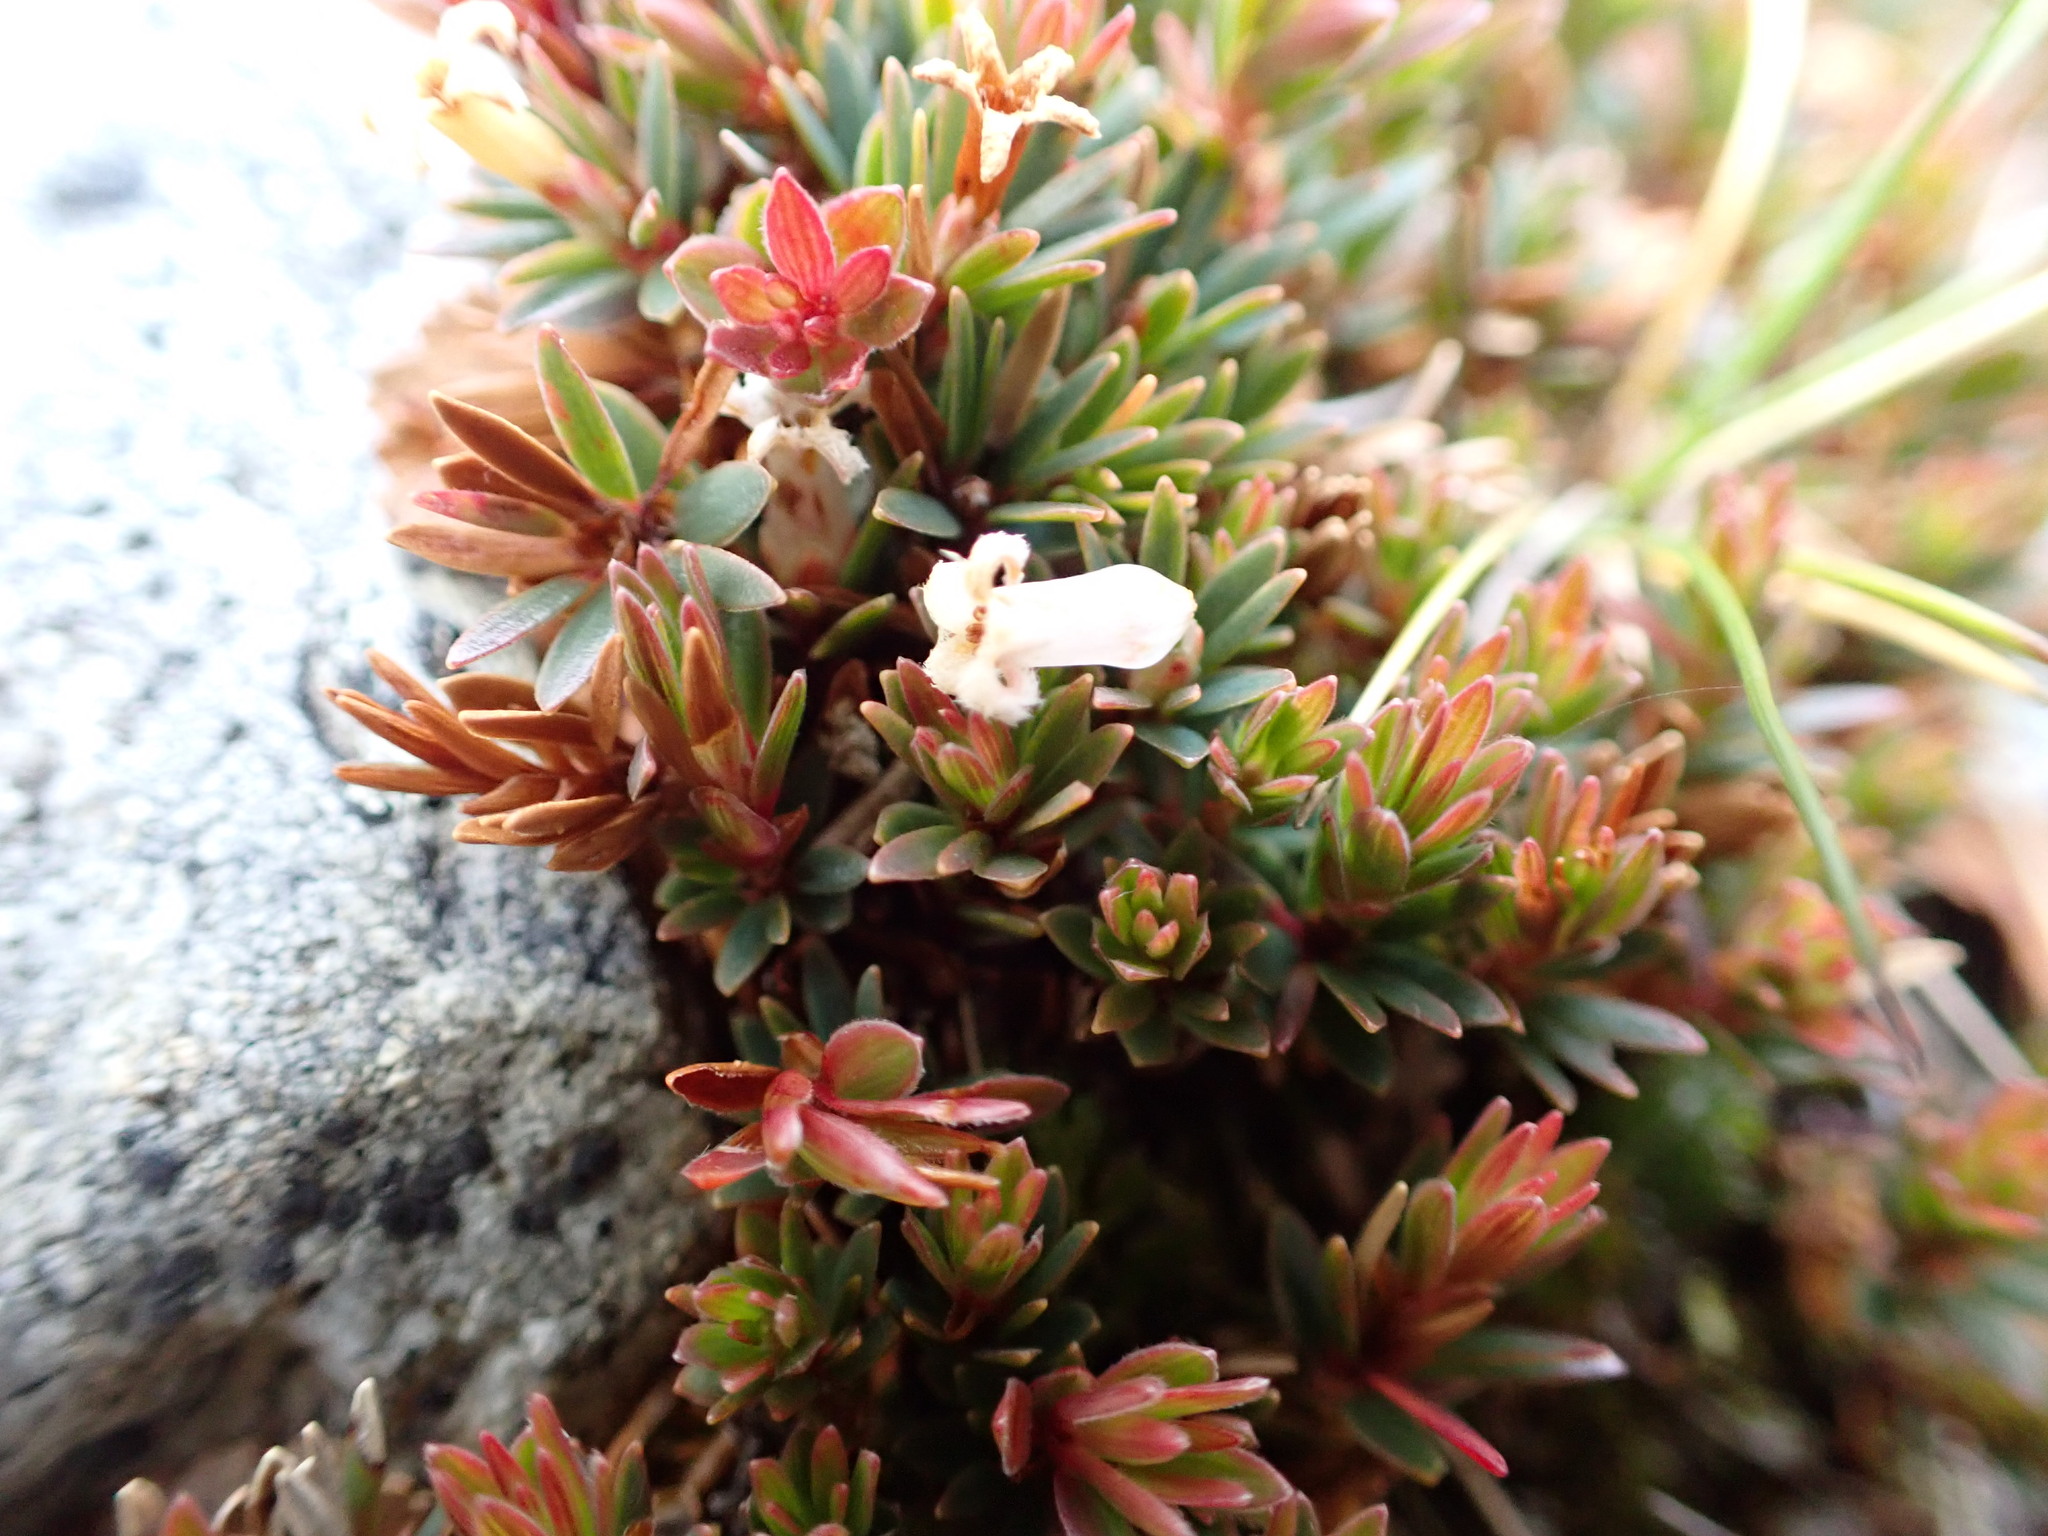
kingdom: Plantae
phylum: Tracheophyta
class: Magnoliopsida
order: Ericales
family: Ericaceae
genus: Pentachondra
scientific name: Pentachondra pumila
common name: Carpet-heath
